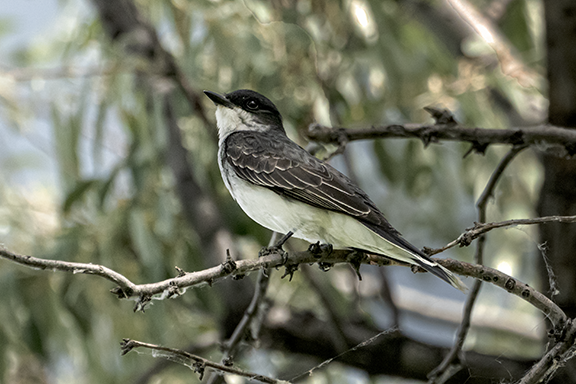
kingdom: Animalia
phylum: Chordata
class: Aves
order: Passeriformes
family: Tyrannidae
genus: Tyrannus
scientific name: Tyrannus tyrannus
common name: Eastern kingbird
